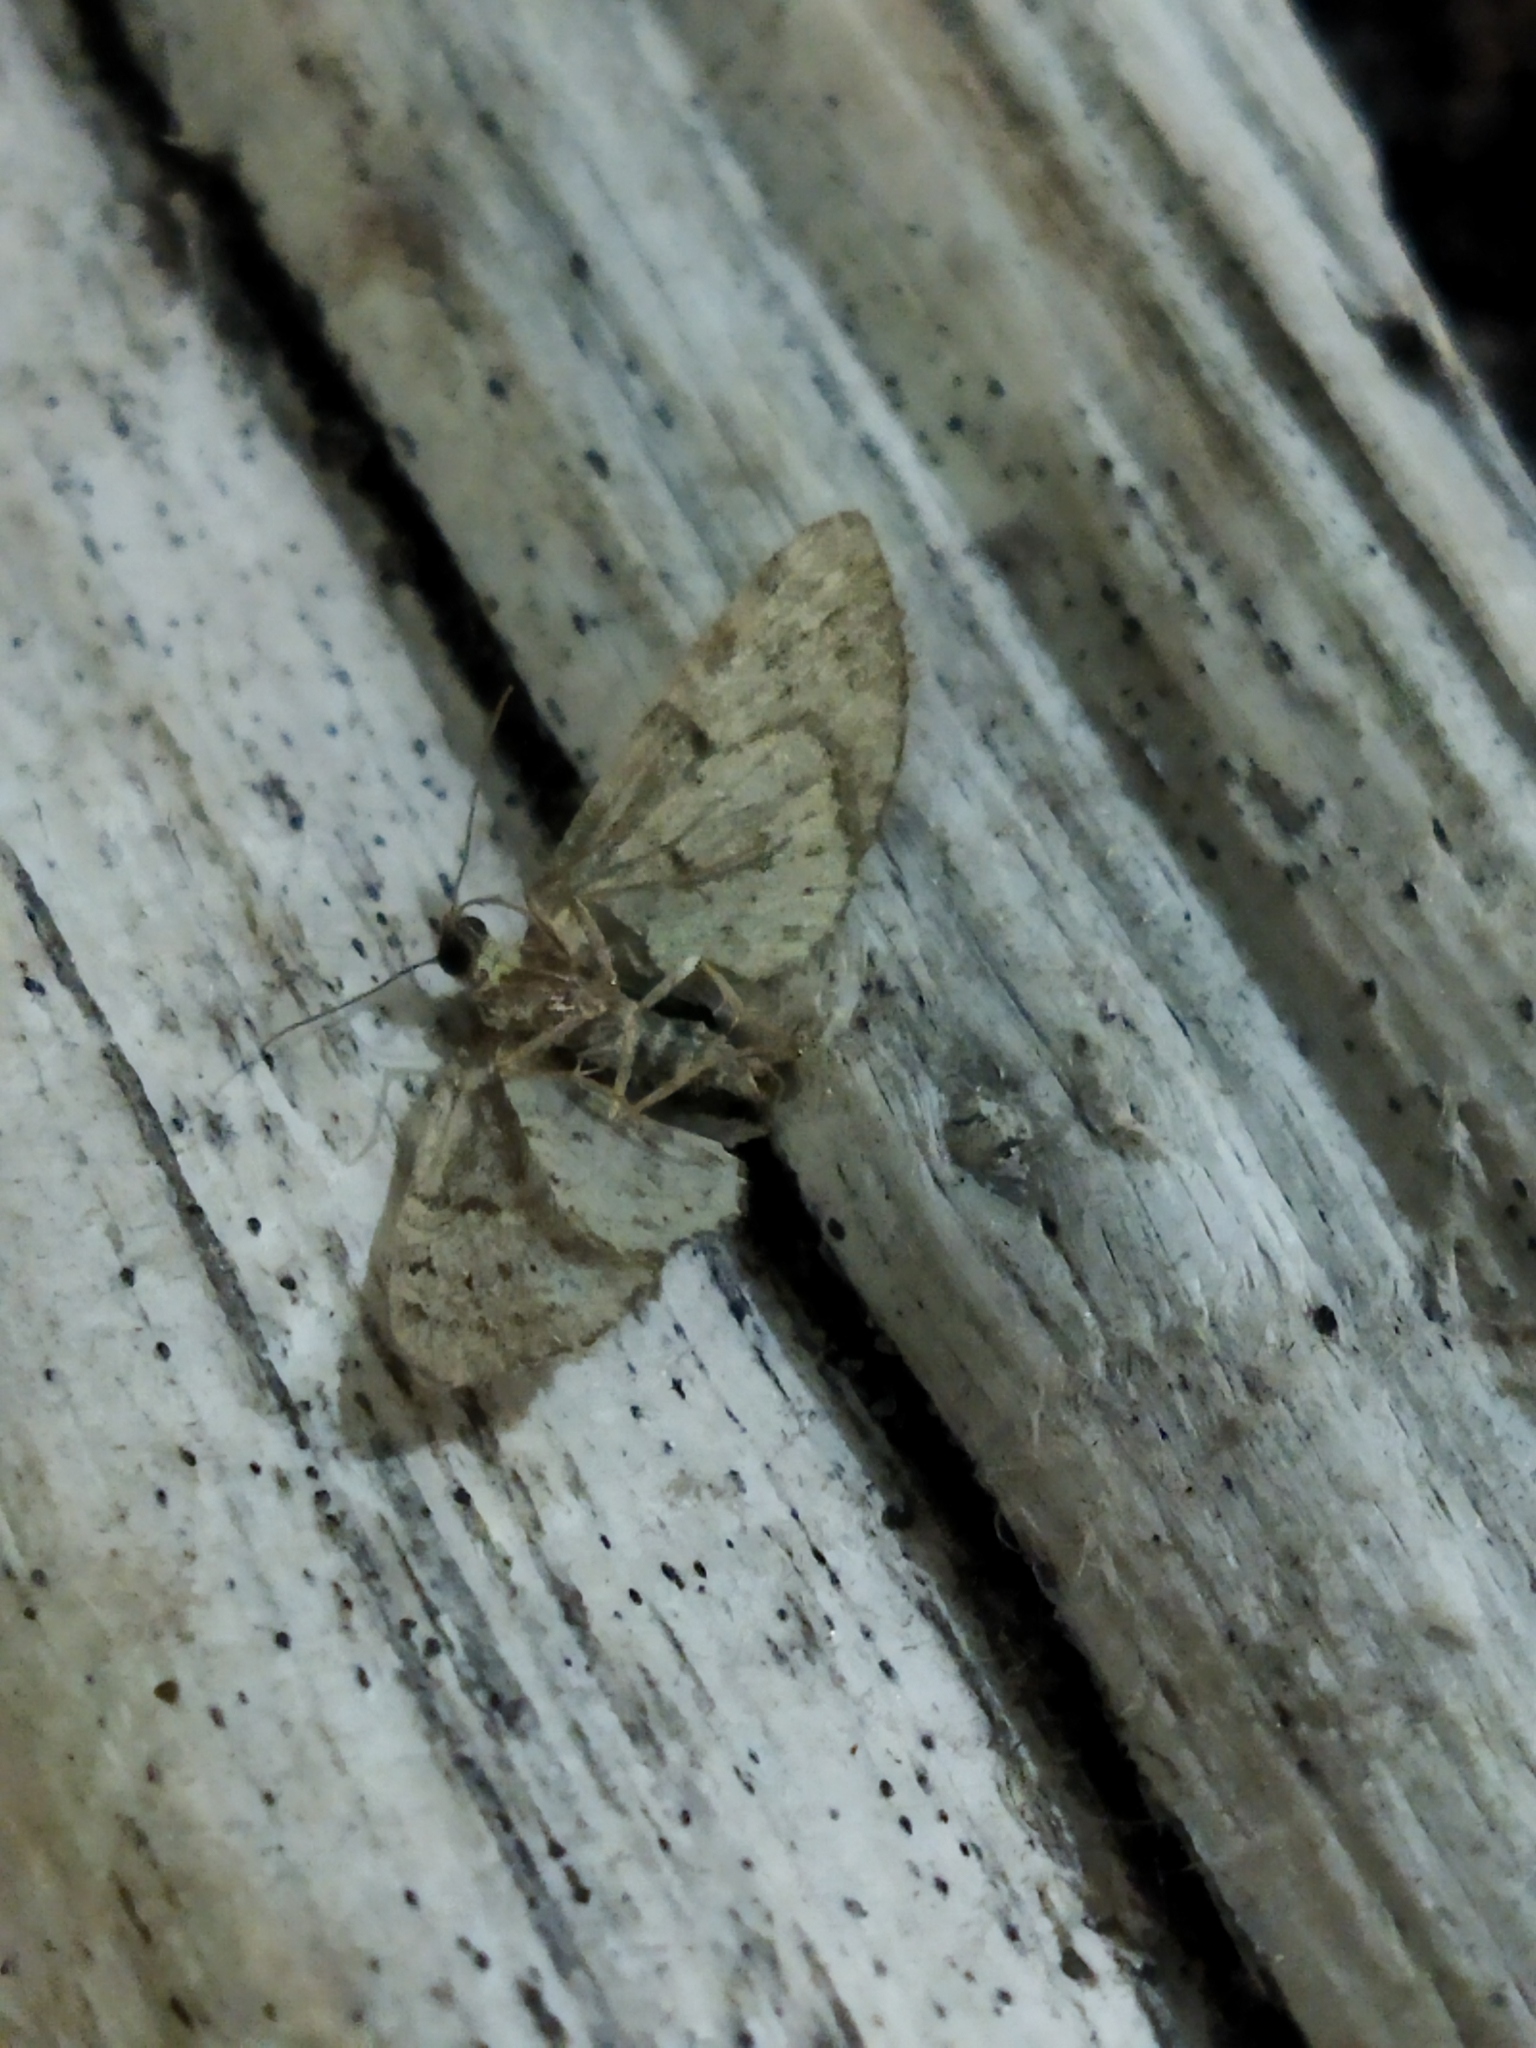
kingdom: Animalia
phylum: Arthropoda
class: Insecta
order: Lepidoptera
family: Geometridae
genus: Eupithecia
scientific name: Eupithecia dodoneata
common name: Oak-tree pug
